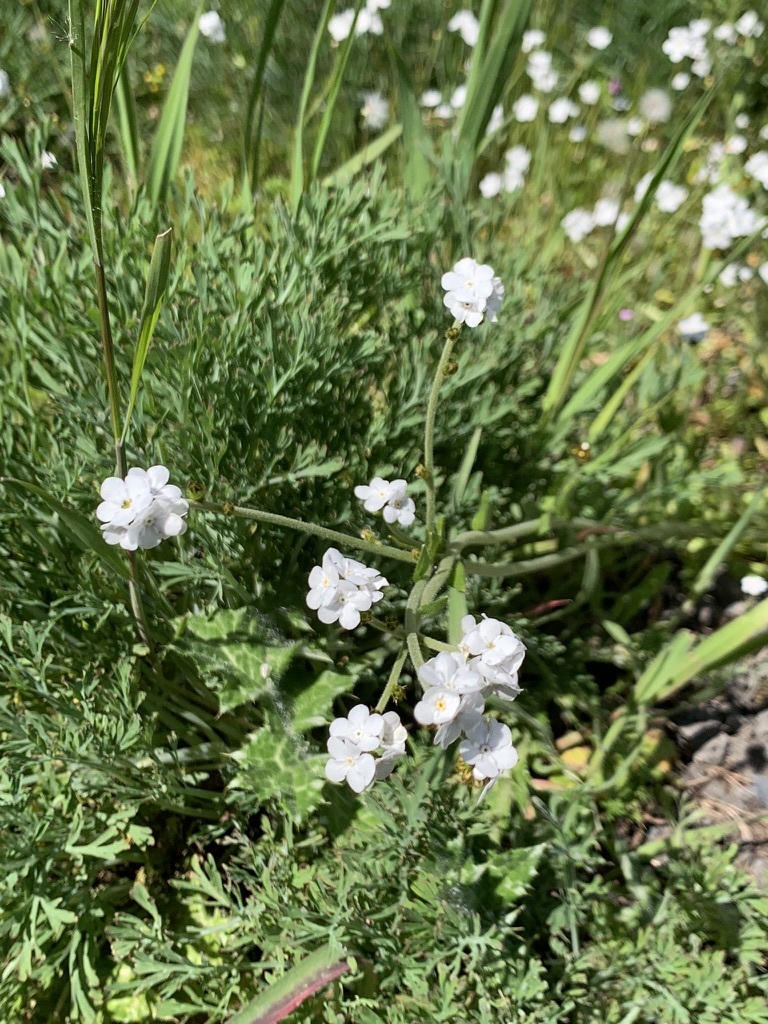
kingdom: Plantae
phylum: Tracheophyta
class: Magnoliopsida
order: Boraginales
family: Boraginaceae
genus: Plagiobothrys
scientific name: Plagiobothrys nothofulvus
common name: Popcorn-flower
